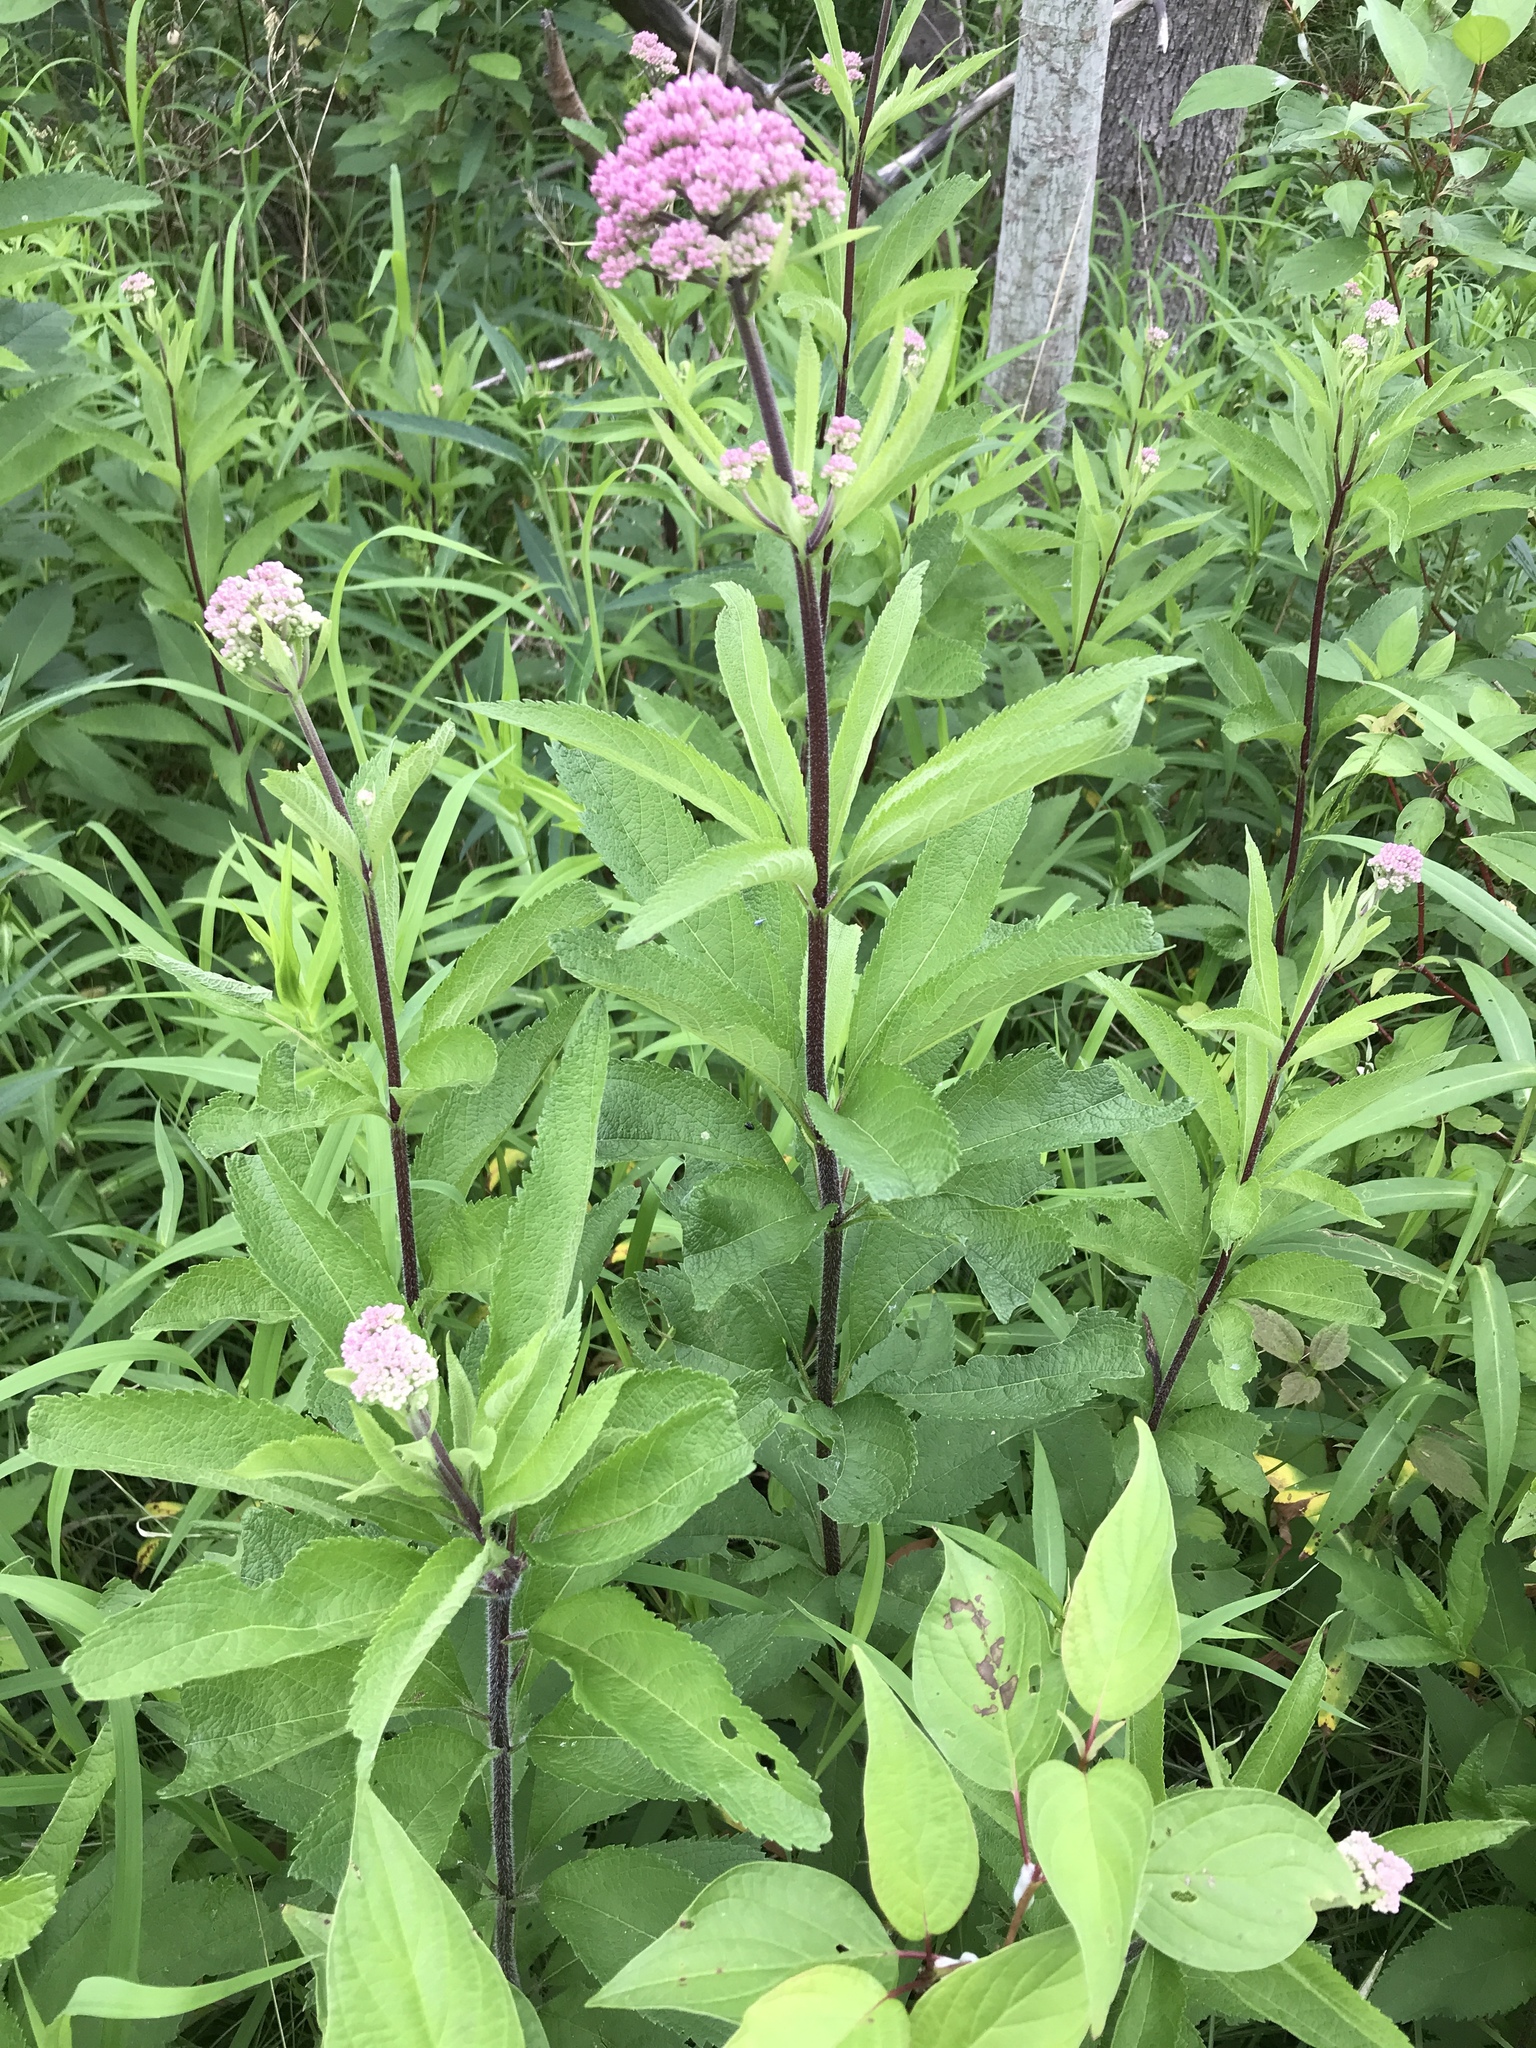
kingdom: Plantae
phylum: Tracheophyta
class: Magnoliopsida
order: Asterales
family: Asteraceae
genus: Eutrochium
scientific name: Eutrochium maculatum
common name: Spotted joe pye weed
